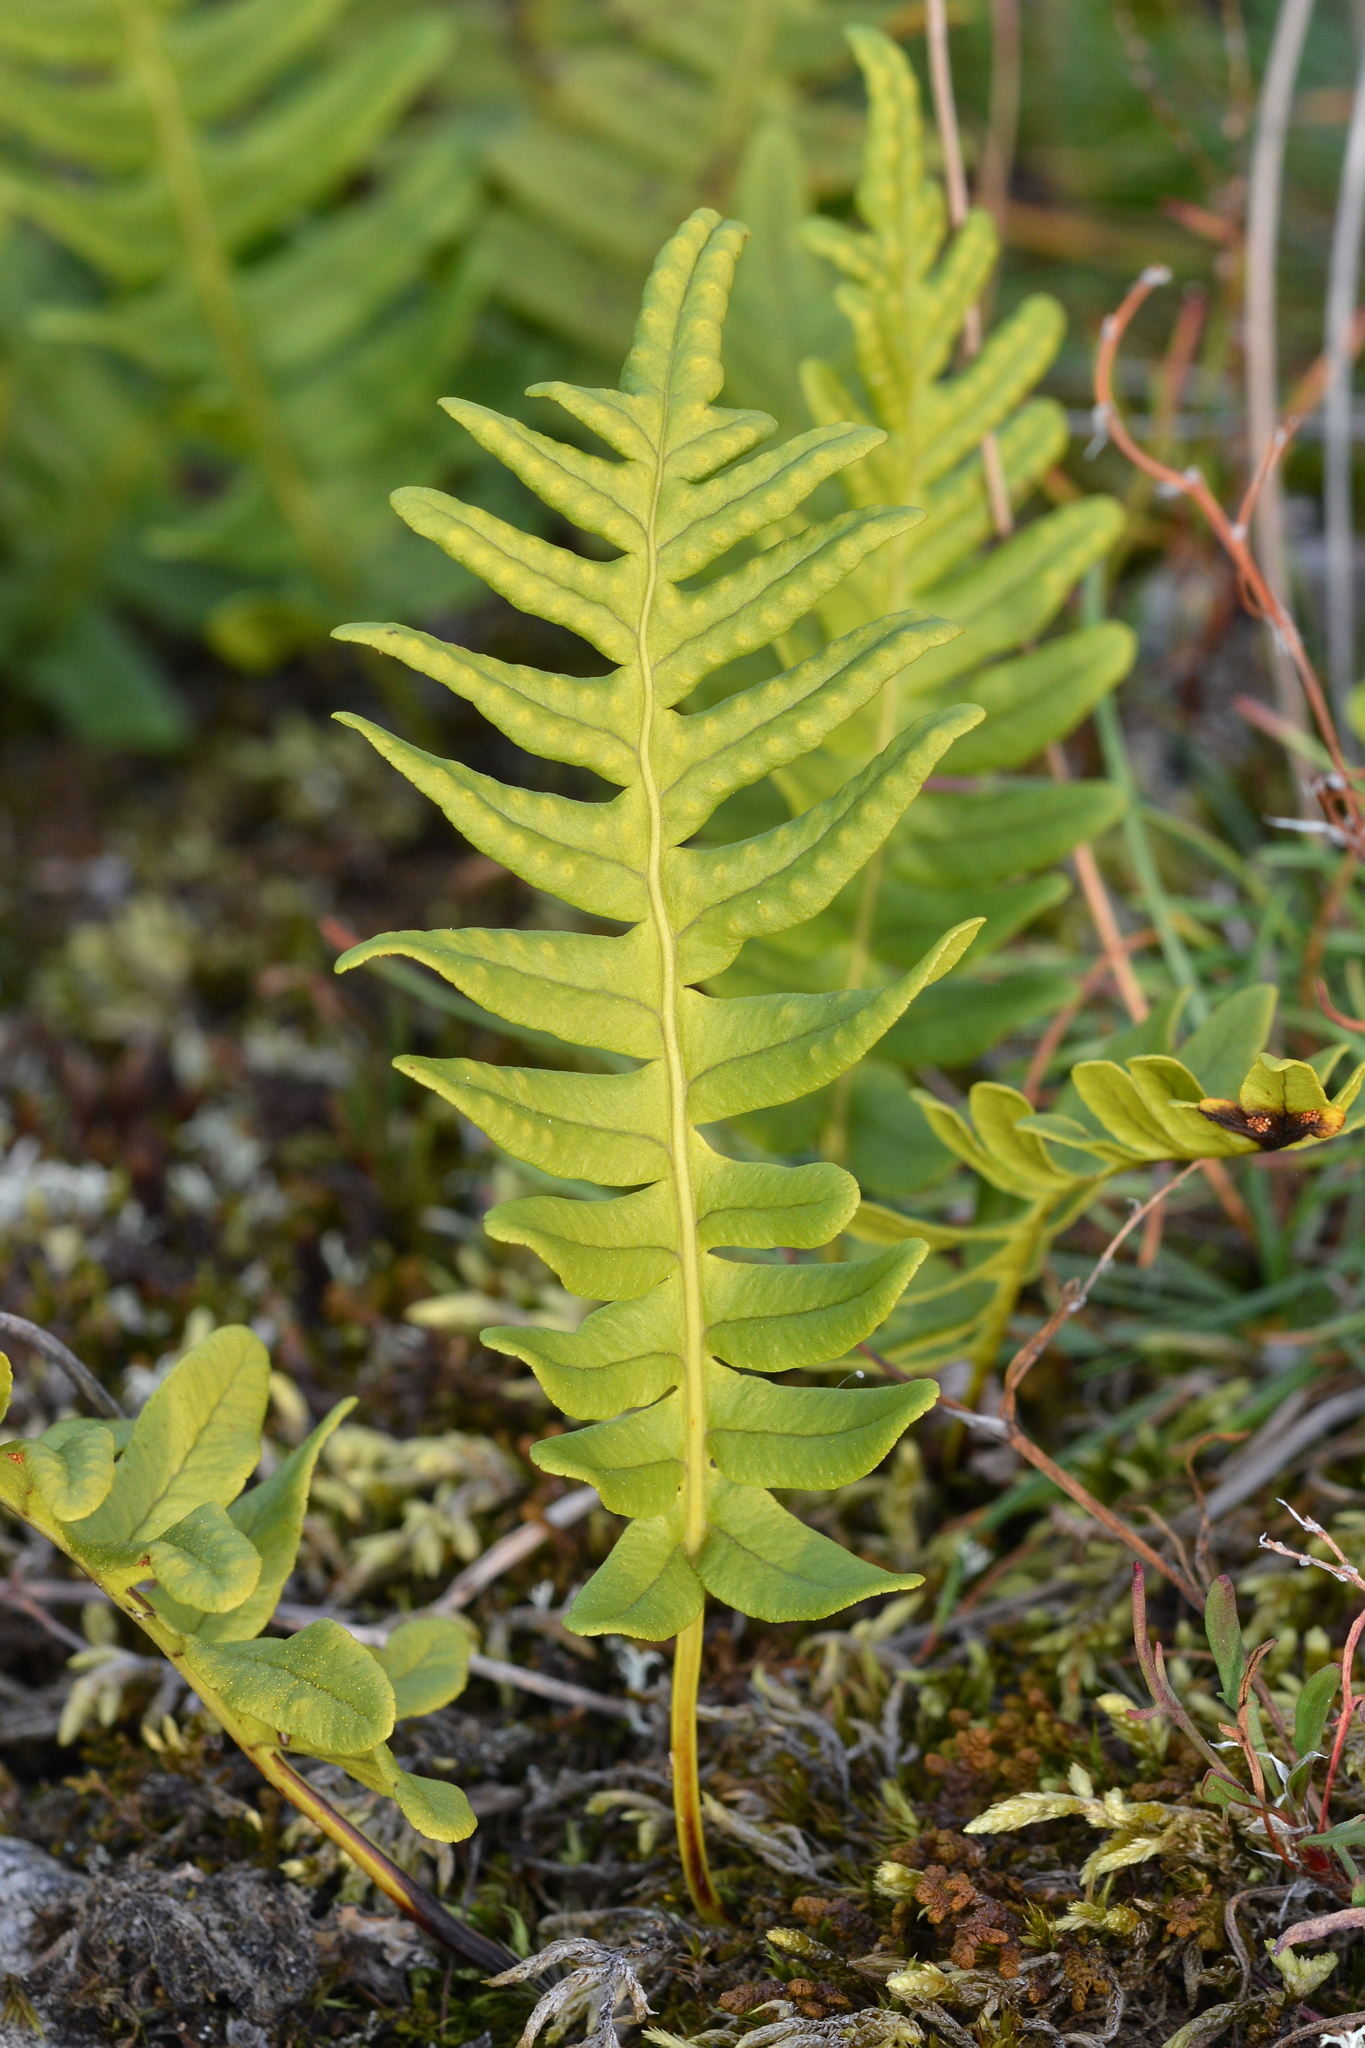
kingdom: Plantae
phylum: Tracheophyta
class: Polypodiopsida
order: Polypodiales
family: Polypodiaceae
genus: Polypodium
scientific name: Polypodium vulgare
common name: Common polypody
